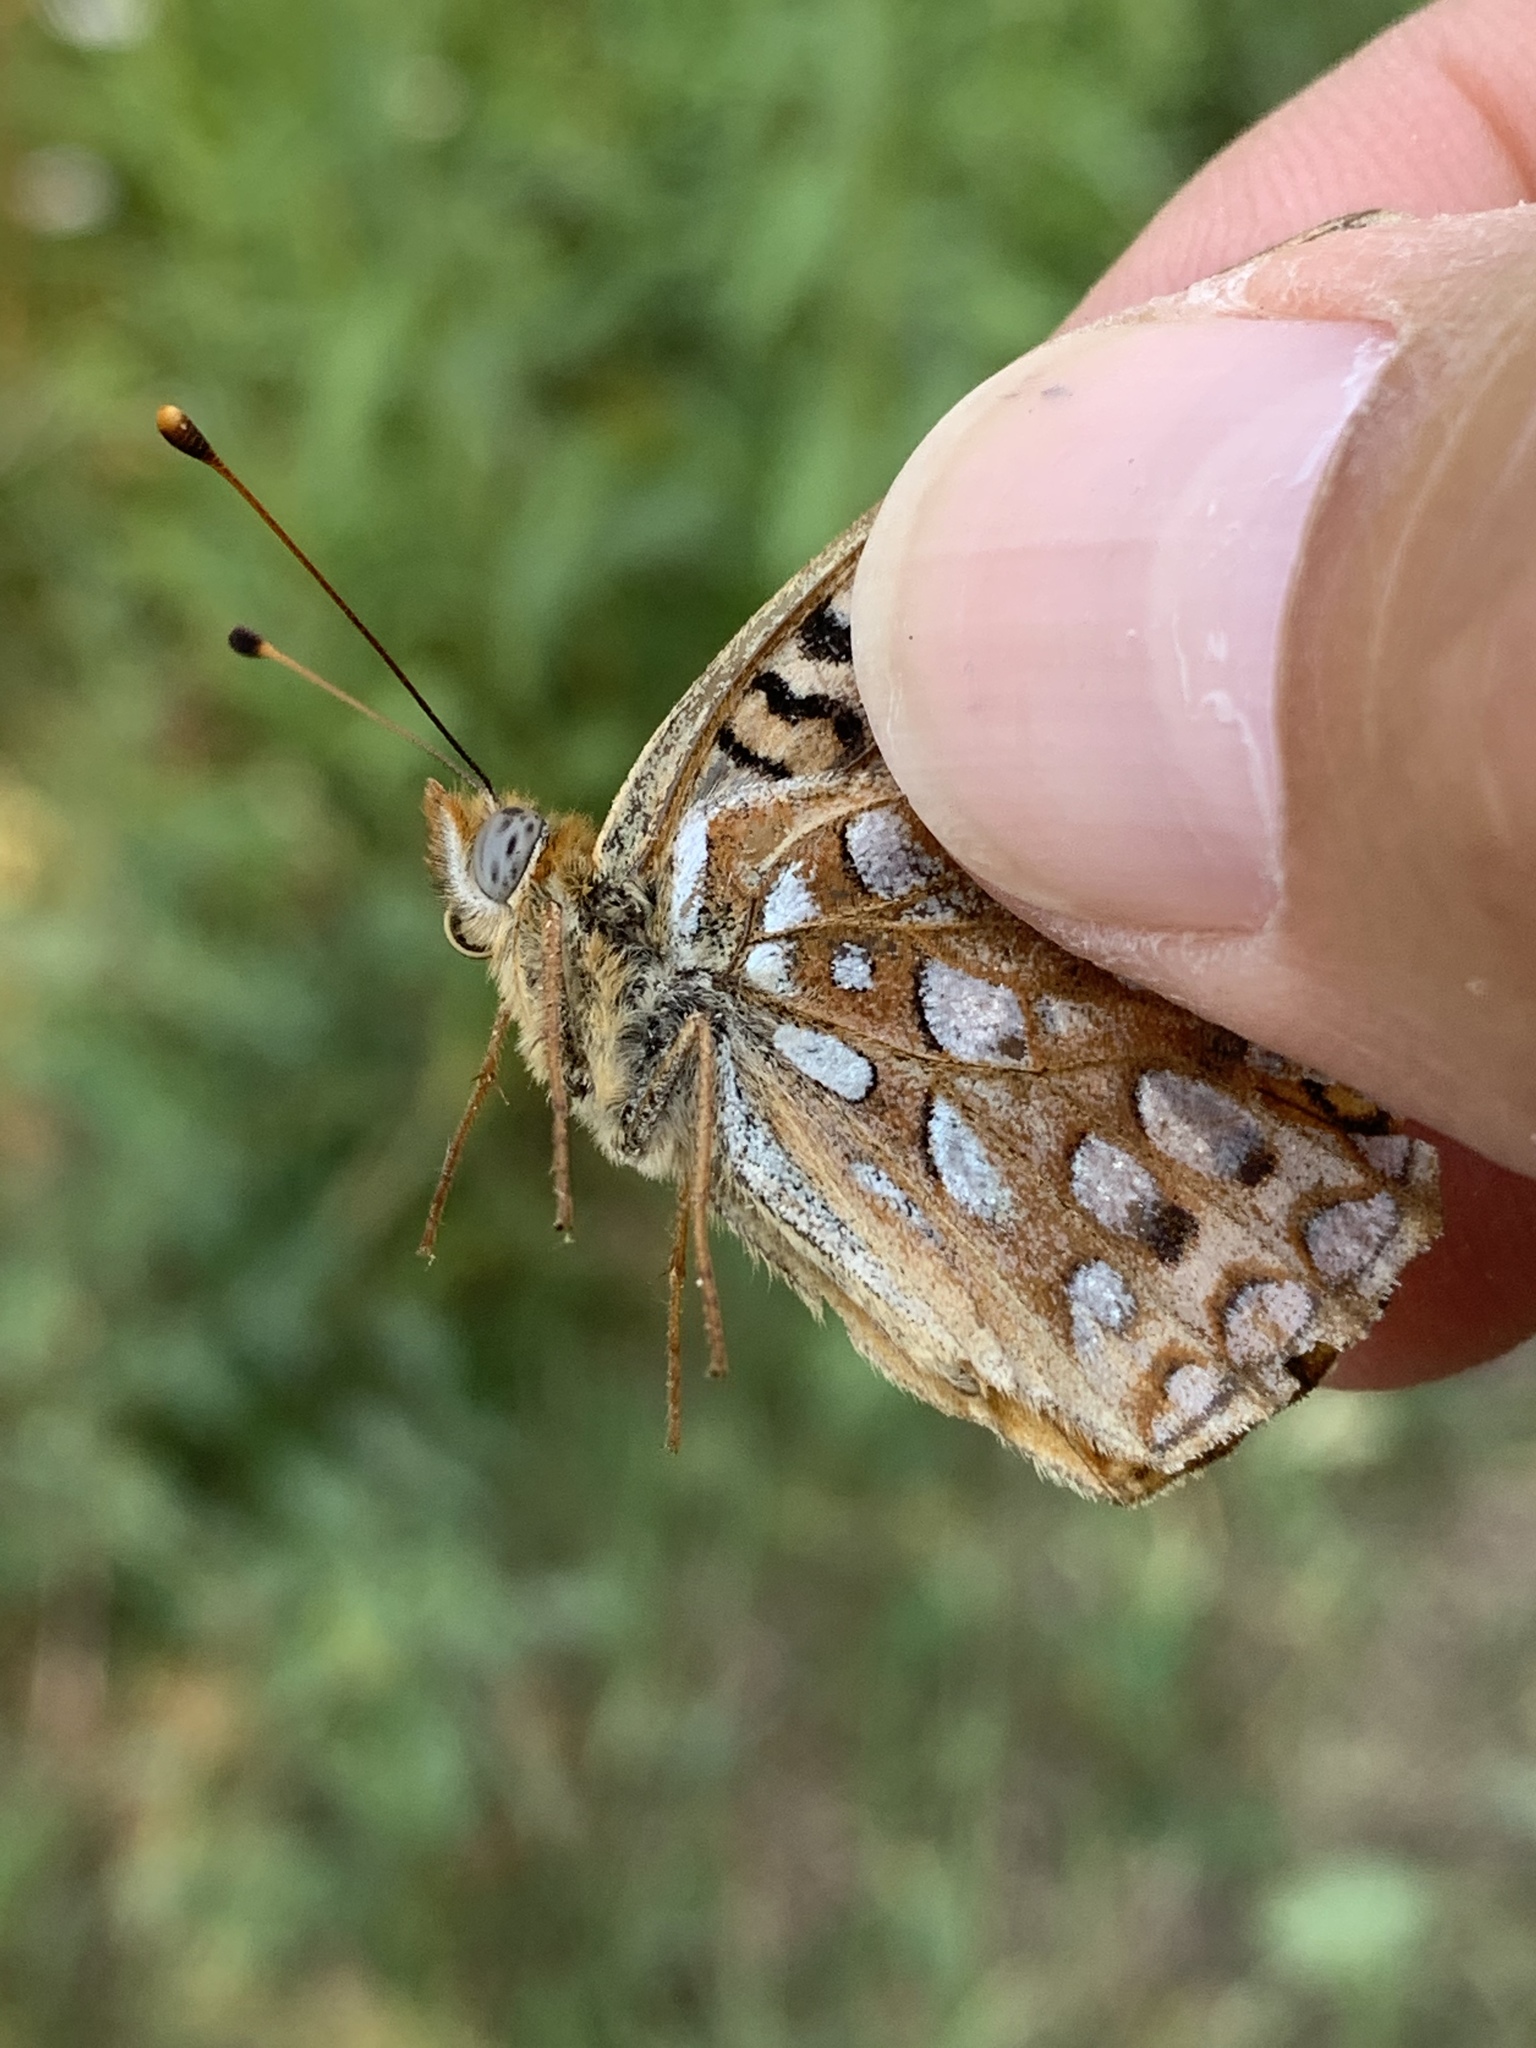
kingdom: Animalia
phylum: Arthropoda
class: Insecta
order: Lepidoptera
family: Nymphalidae
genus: Speyeria
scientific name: Speyeria zerene
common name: Zerene fritillary
